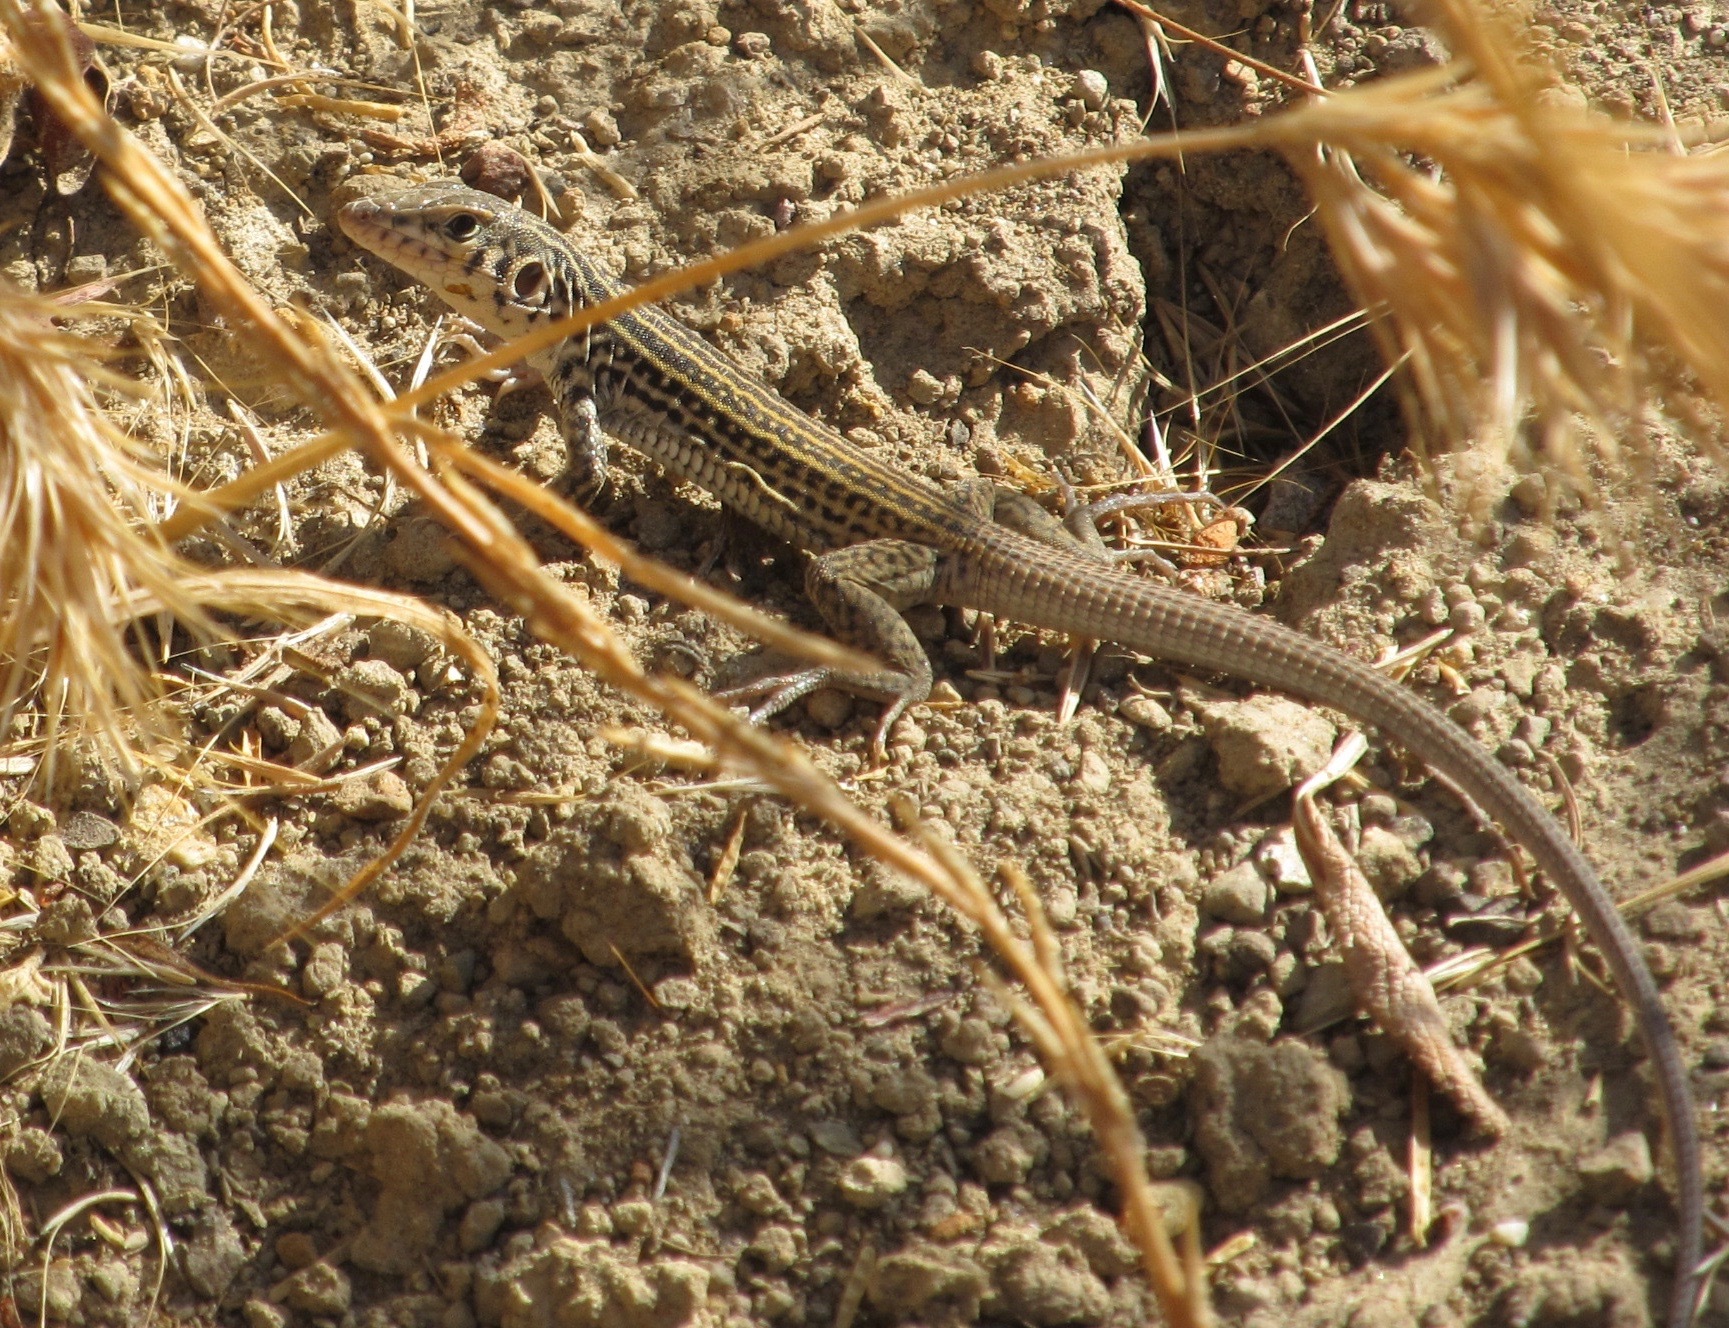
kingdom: Animalia
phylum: Chordata
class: Squamata
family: Teiidae
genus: Aspidoscelis
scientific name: Aspidoscelis tigris
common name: Tiger whiptail
